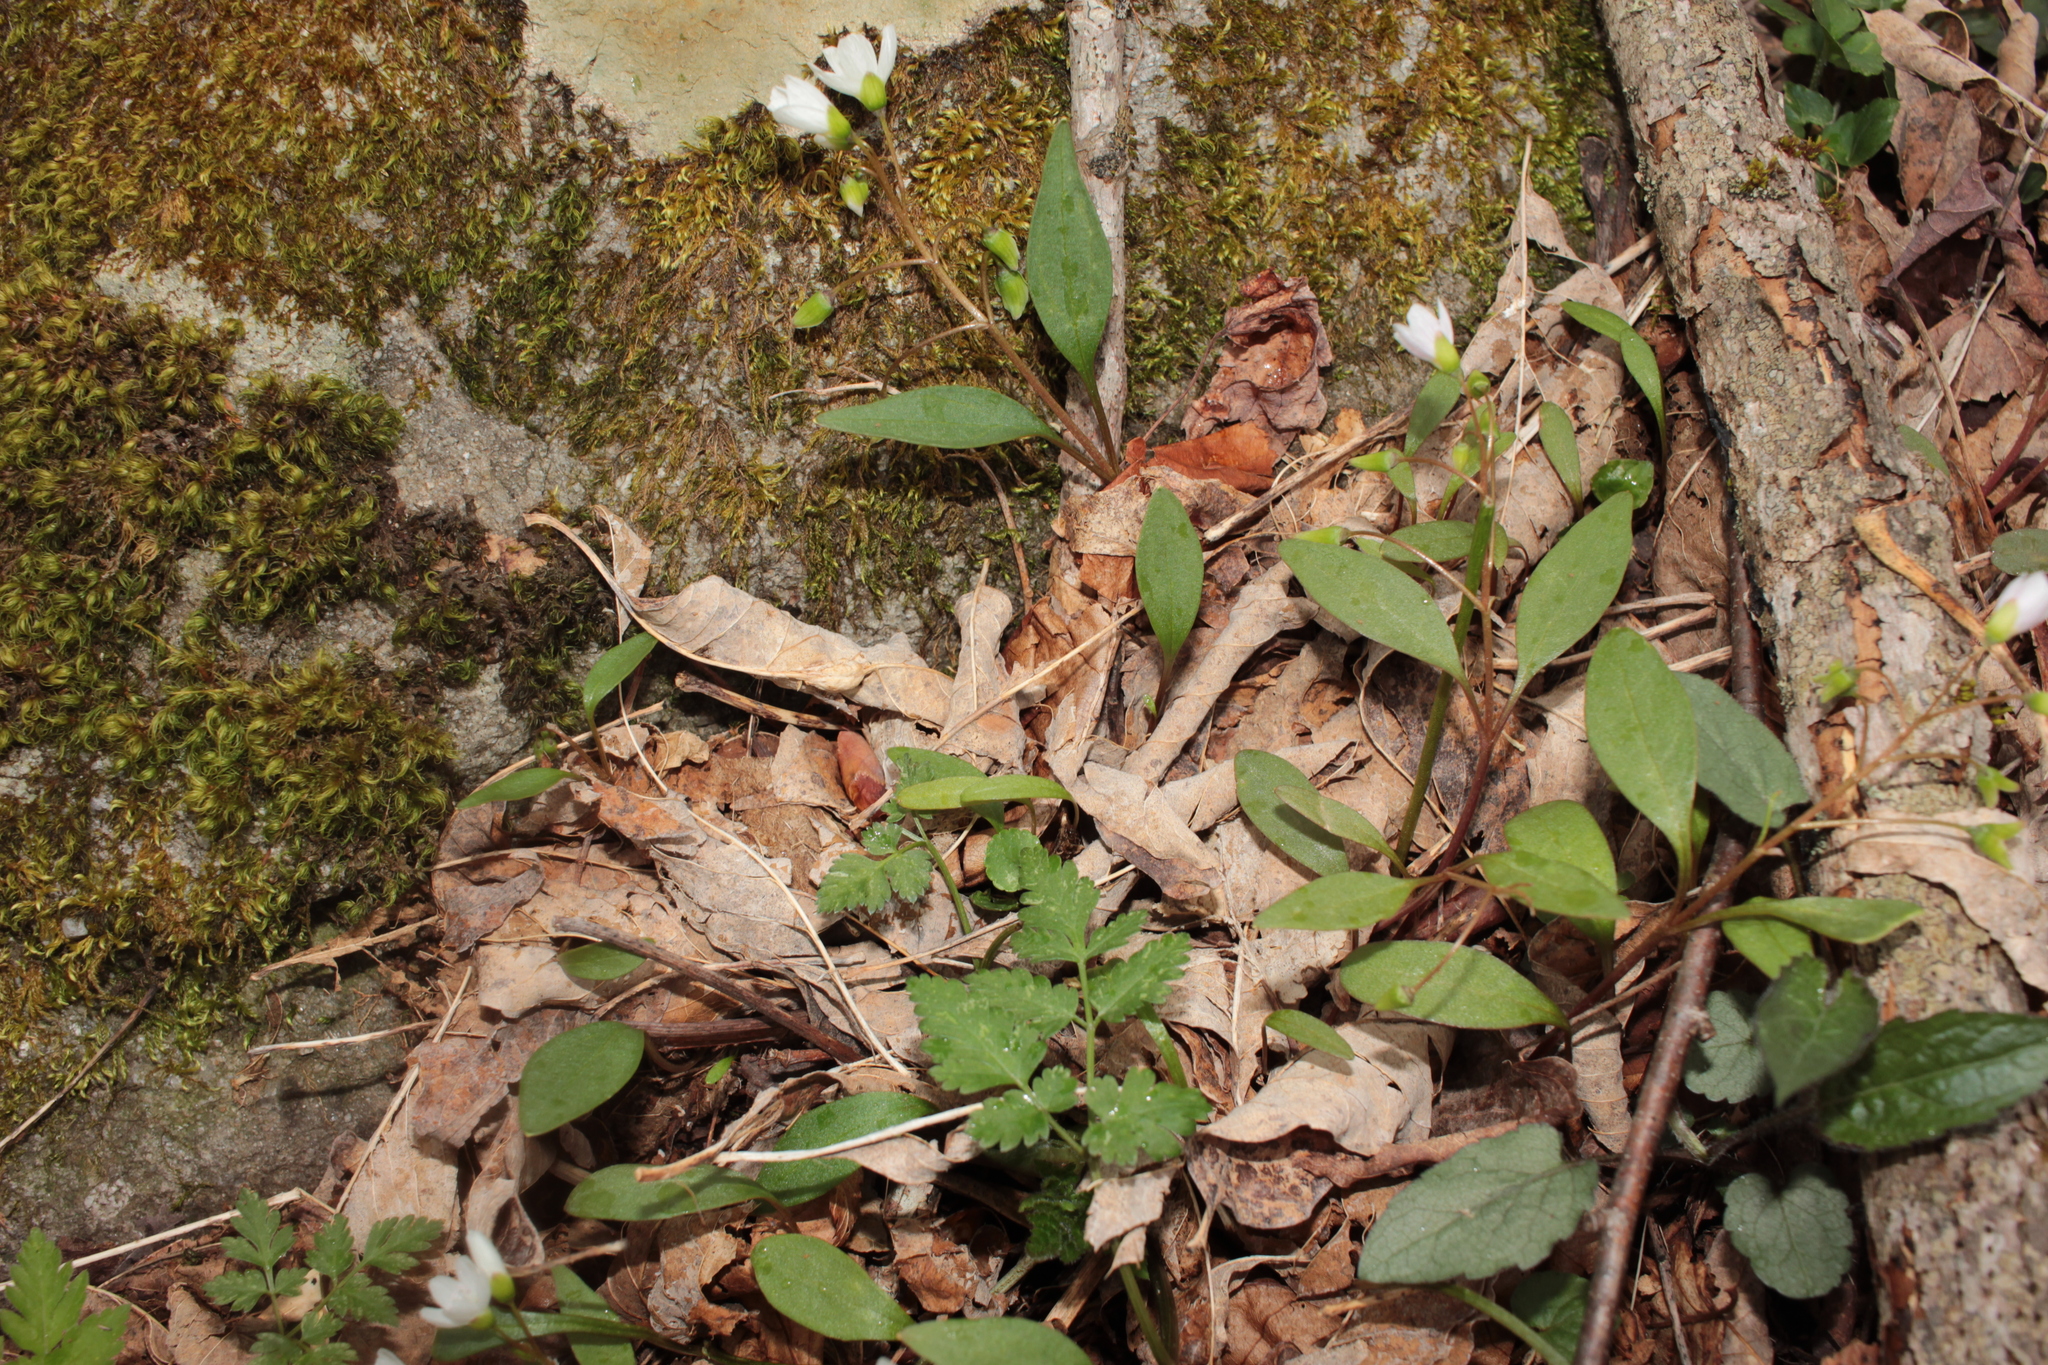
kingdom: Plantae
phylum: Tracheophyta
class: Magnoliopsida
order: Caryophyllales
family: Montiaceae
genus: Claytonia
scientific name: Claytonia caroliniana
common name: Carolina spring beauty
